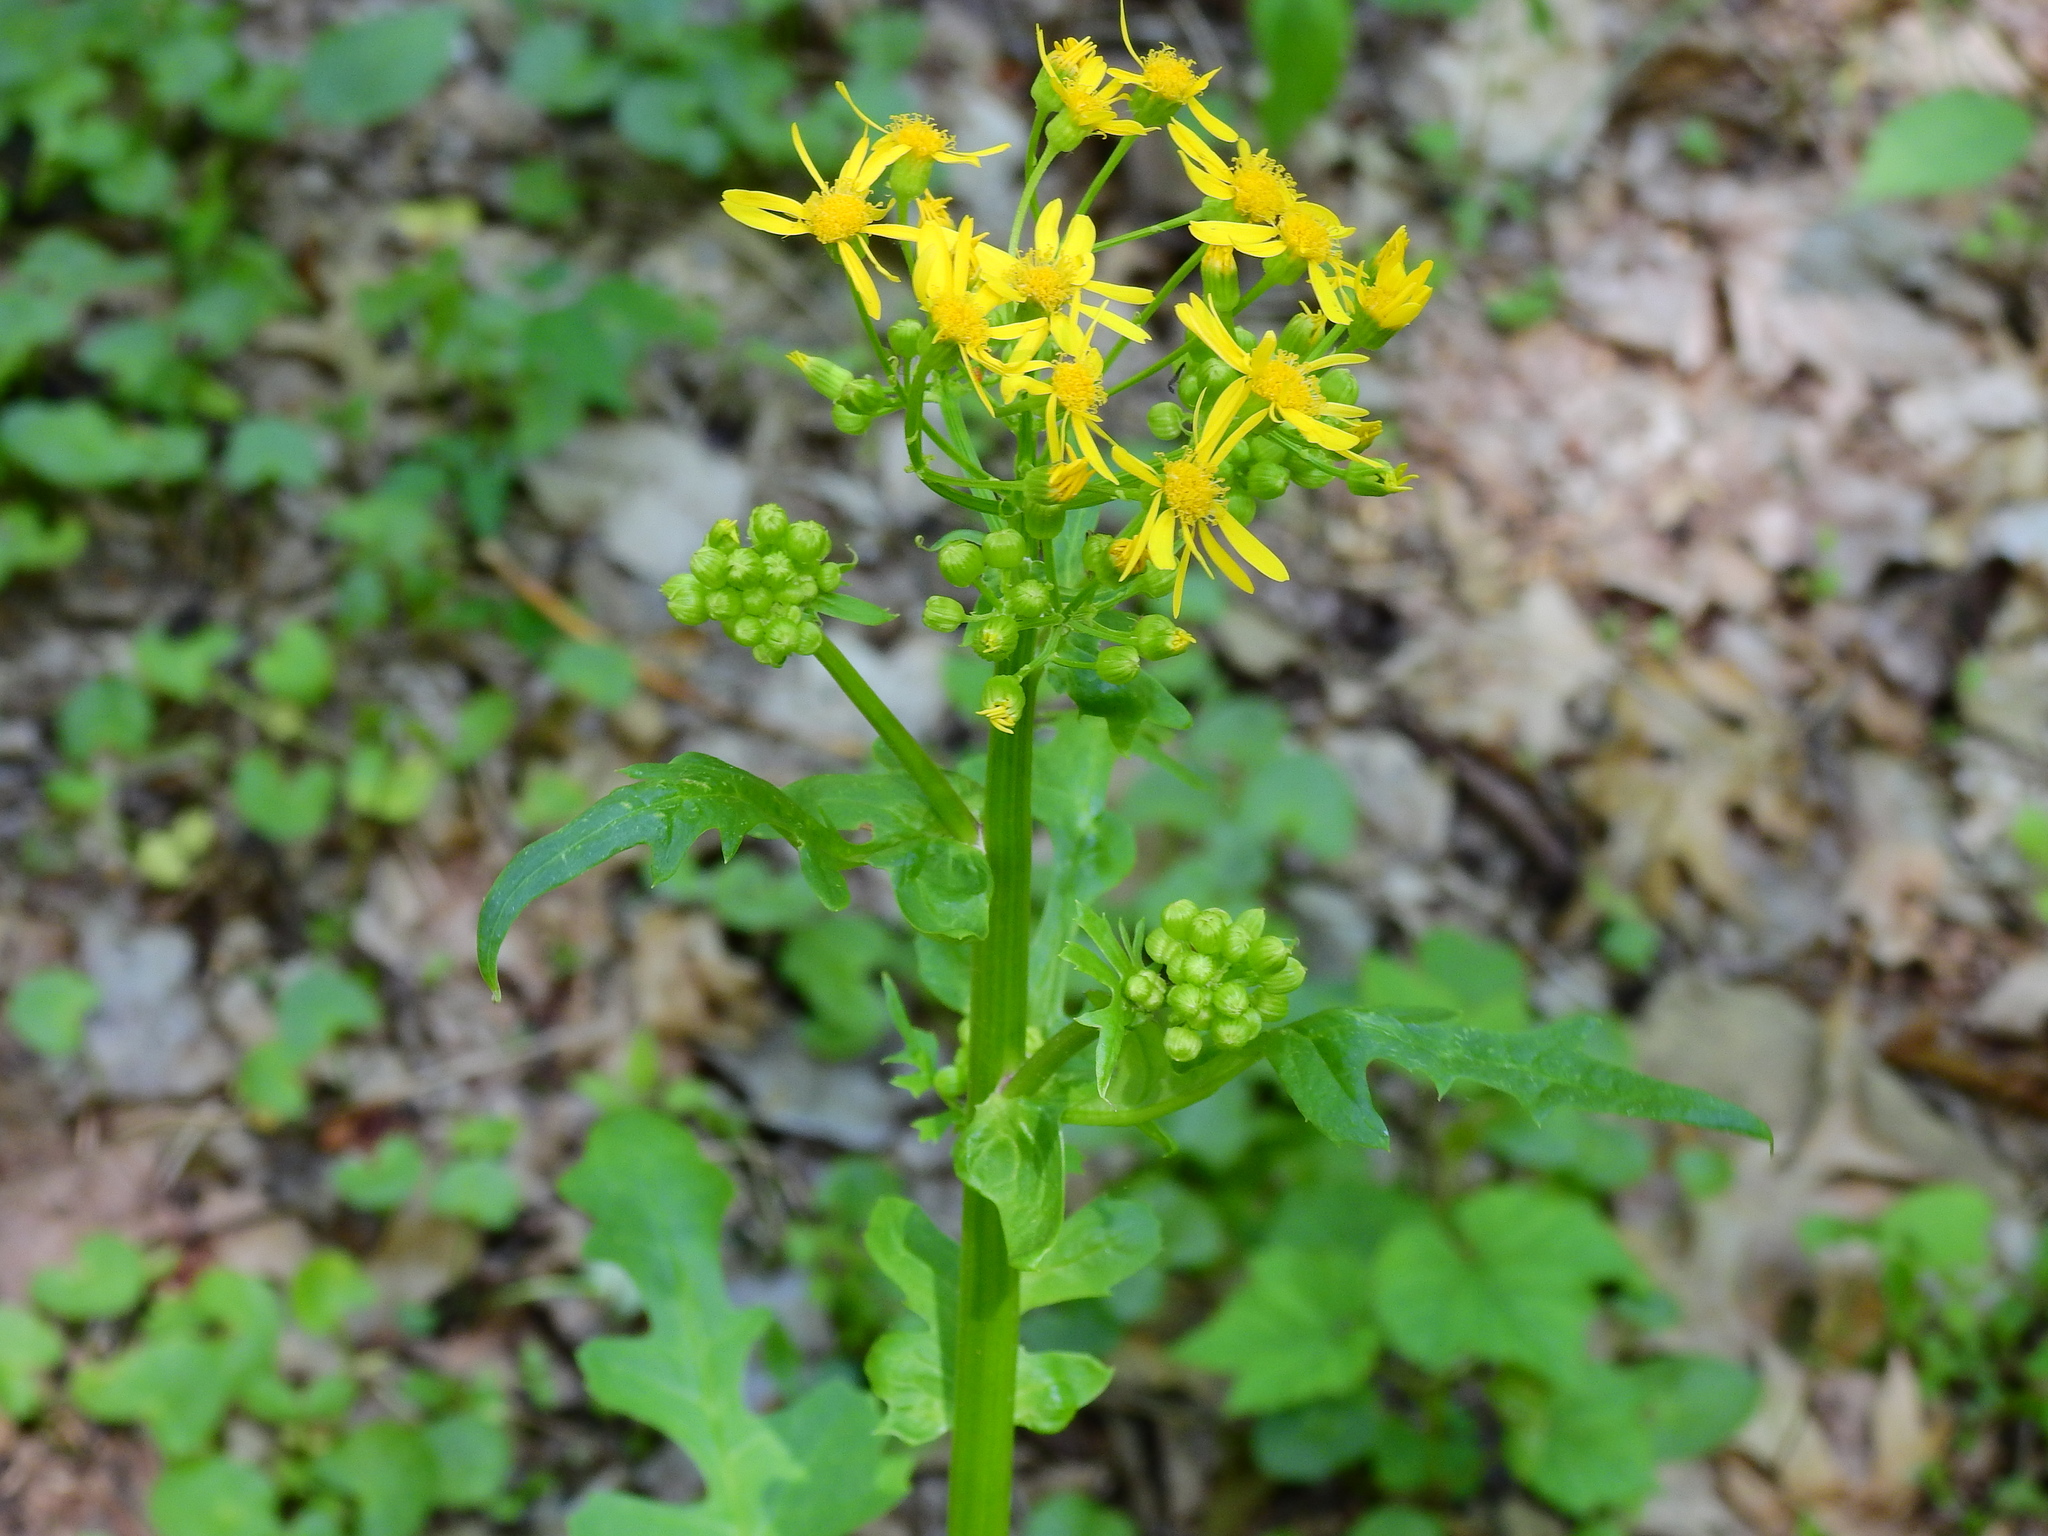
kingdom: Plantae
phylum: Tracheophyta
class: Magnoliopsida
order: Asterales
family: Asteraceae
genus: Packera
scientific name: Packera glabella
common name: Butterweed
